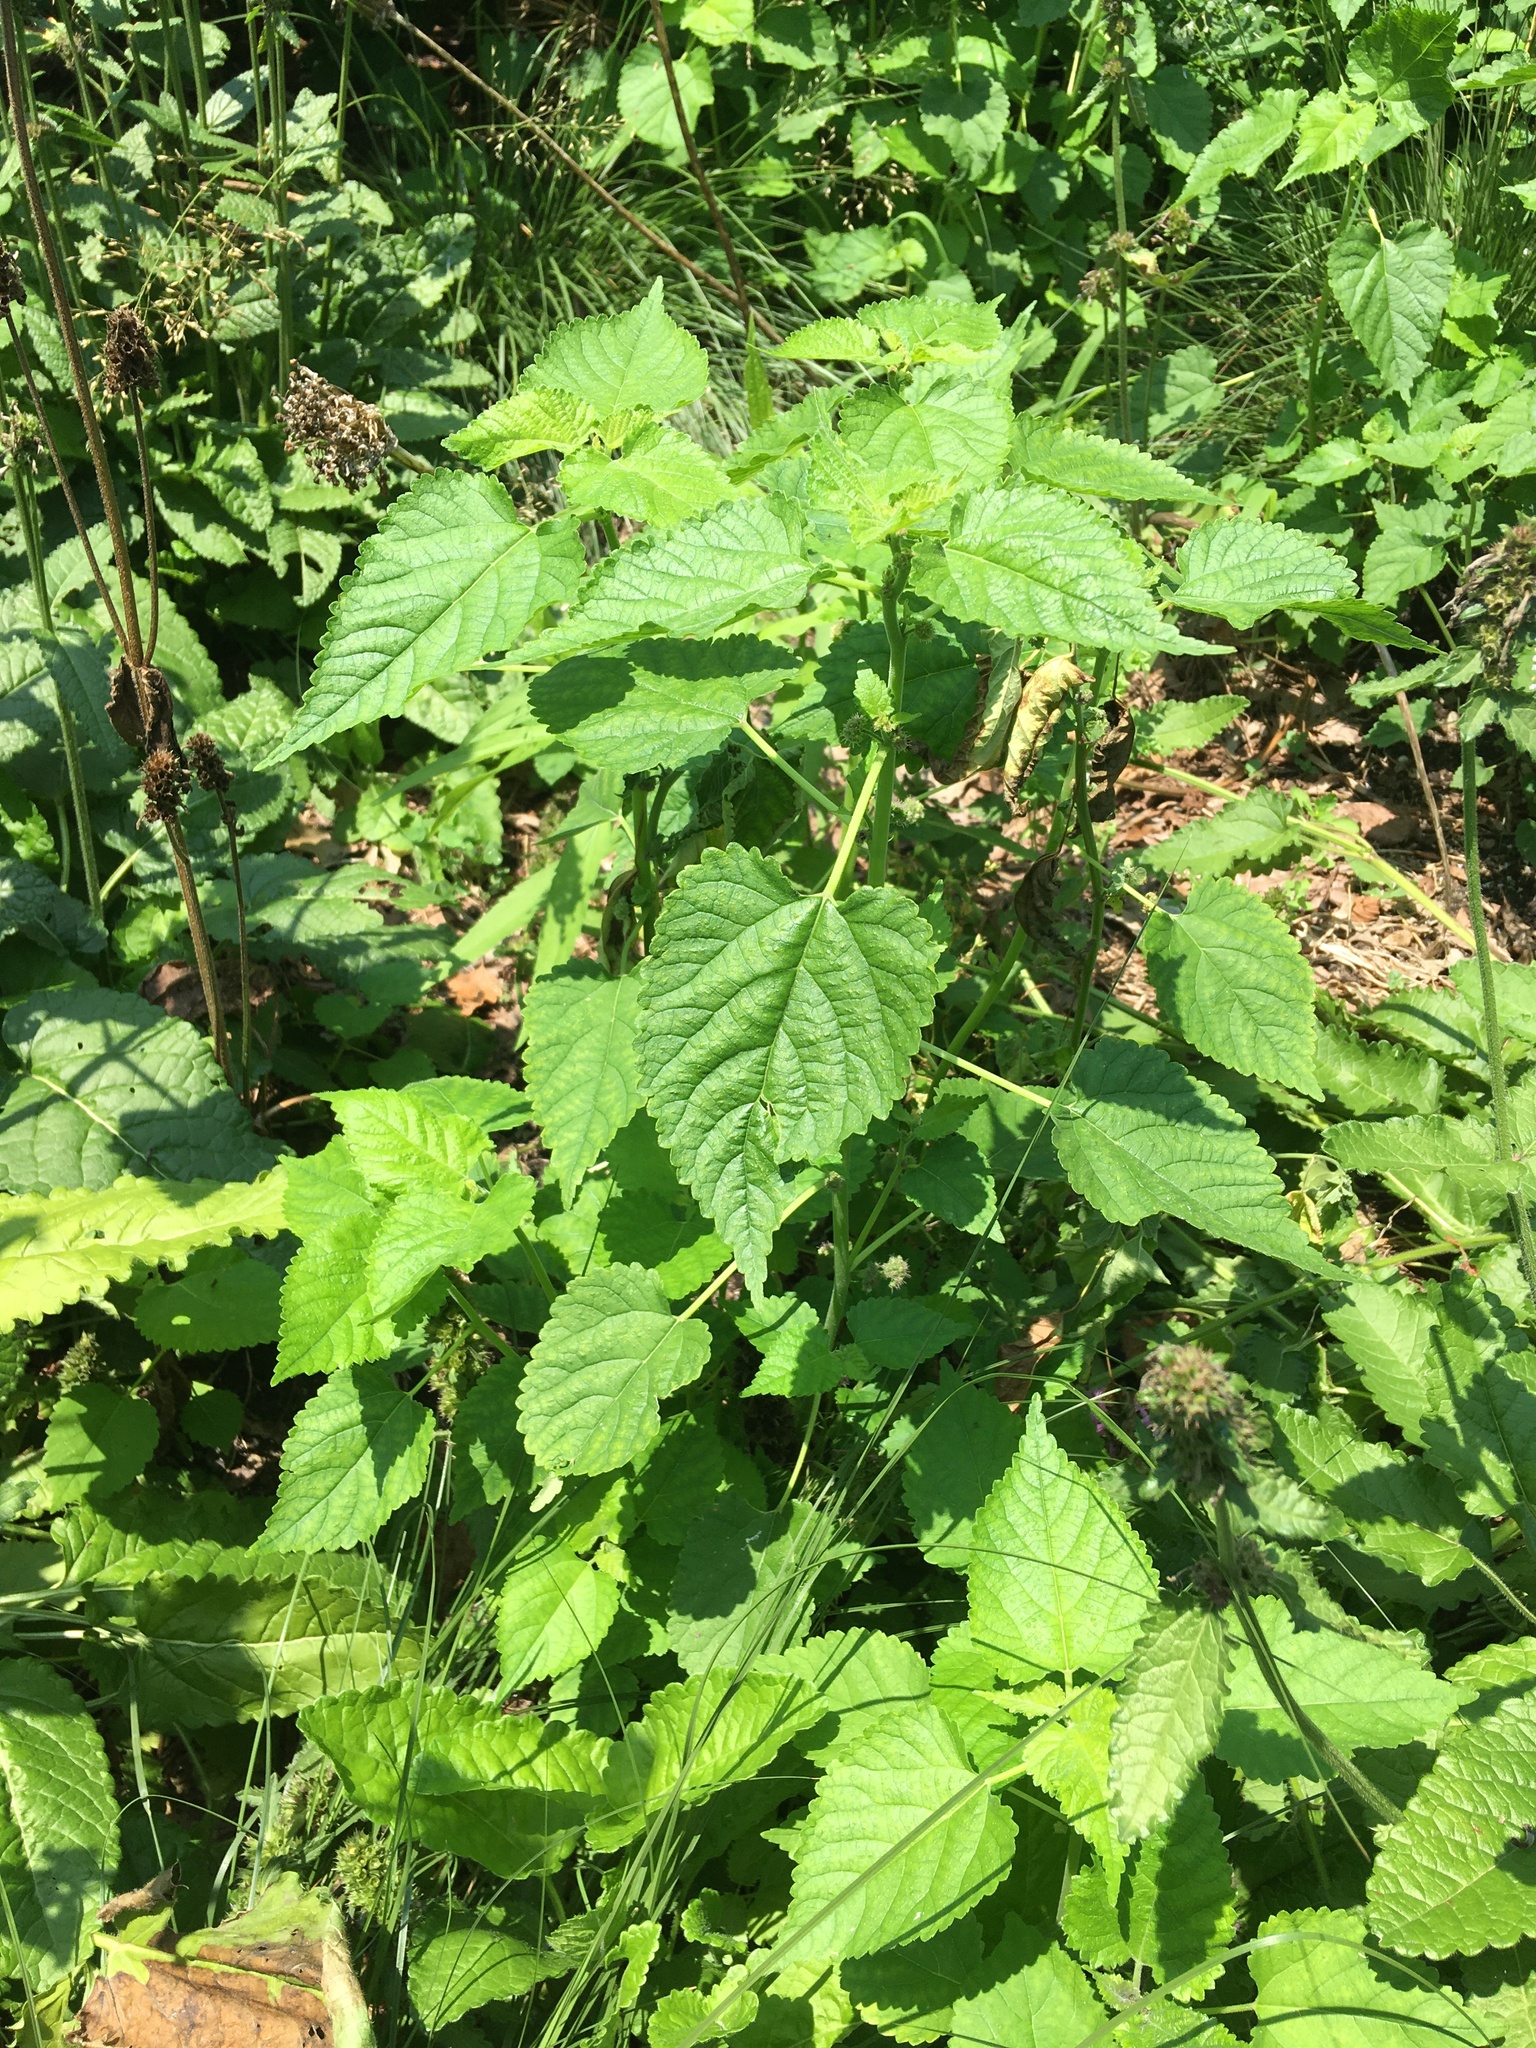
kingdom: Plantae
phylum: Tracheophyta
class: Magnoliopsida
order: Rosales
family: Moraceae
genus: Fatoua
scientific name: Fatoua villosa
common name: Hairy crabweed
